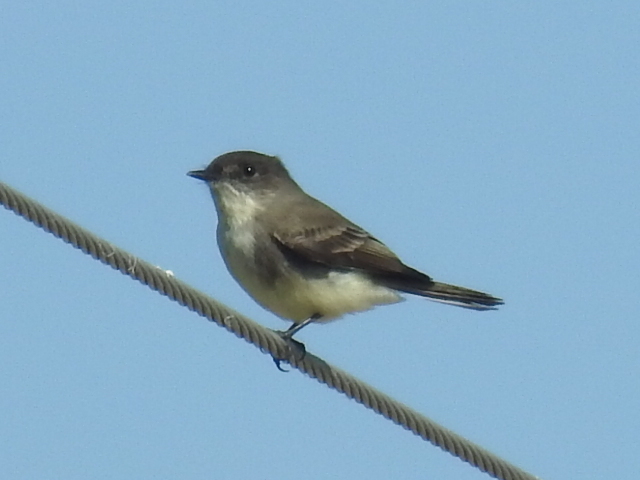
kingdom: Animalia
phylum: Chordata
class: Aves
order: Passeriformes
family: Tyrannidae
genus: Sayornis
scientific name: Sayornis phoebe
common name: Eastern phoebe
